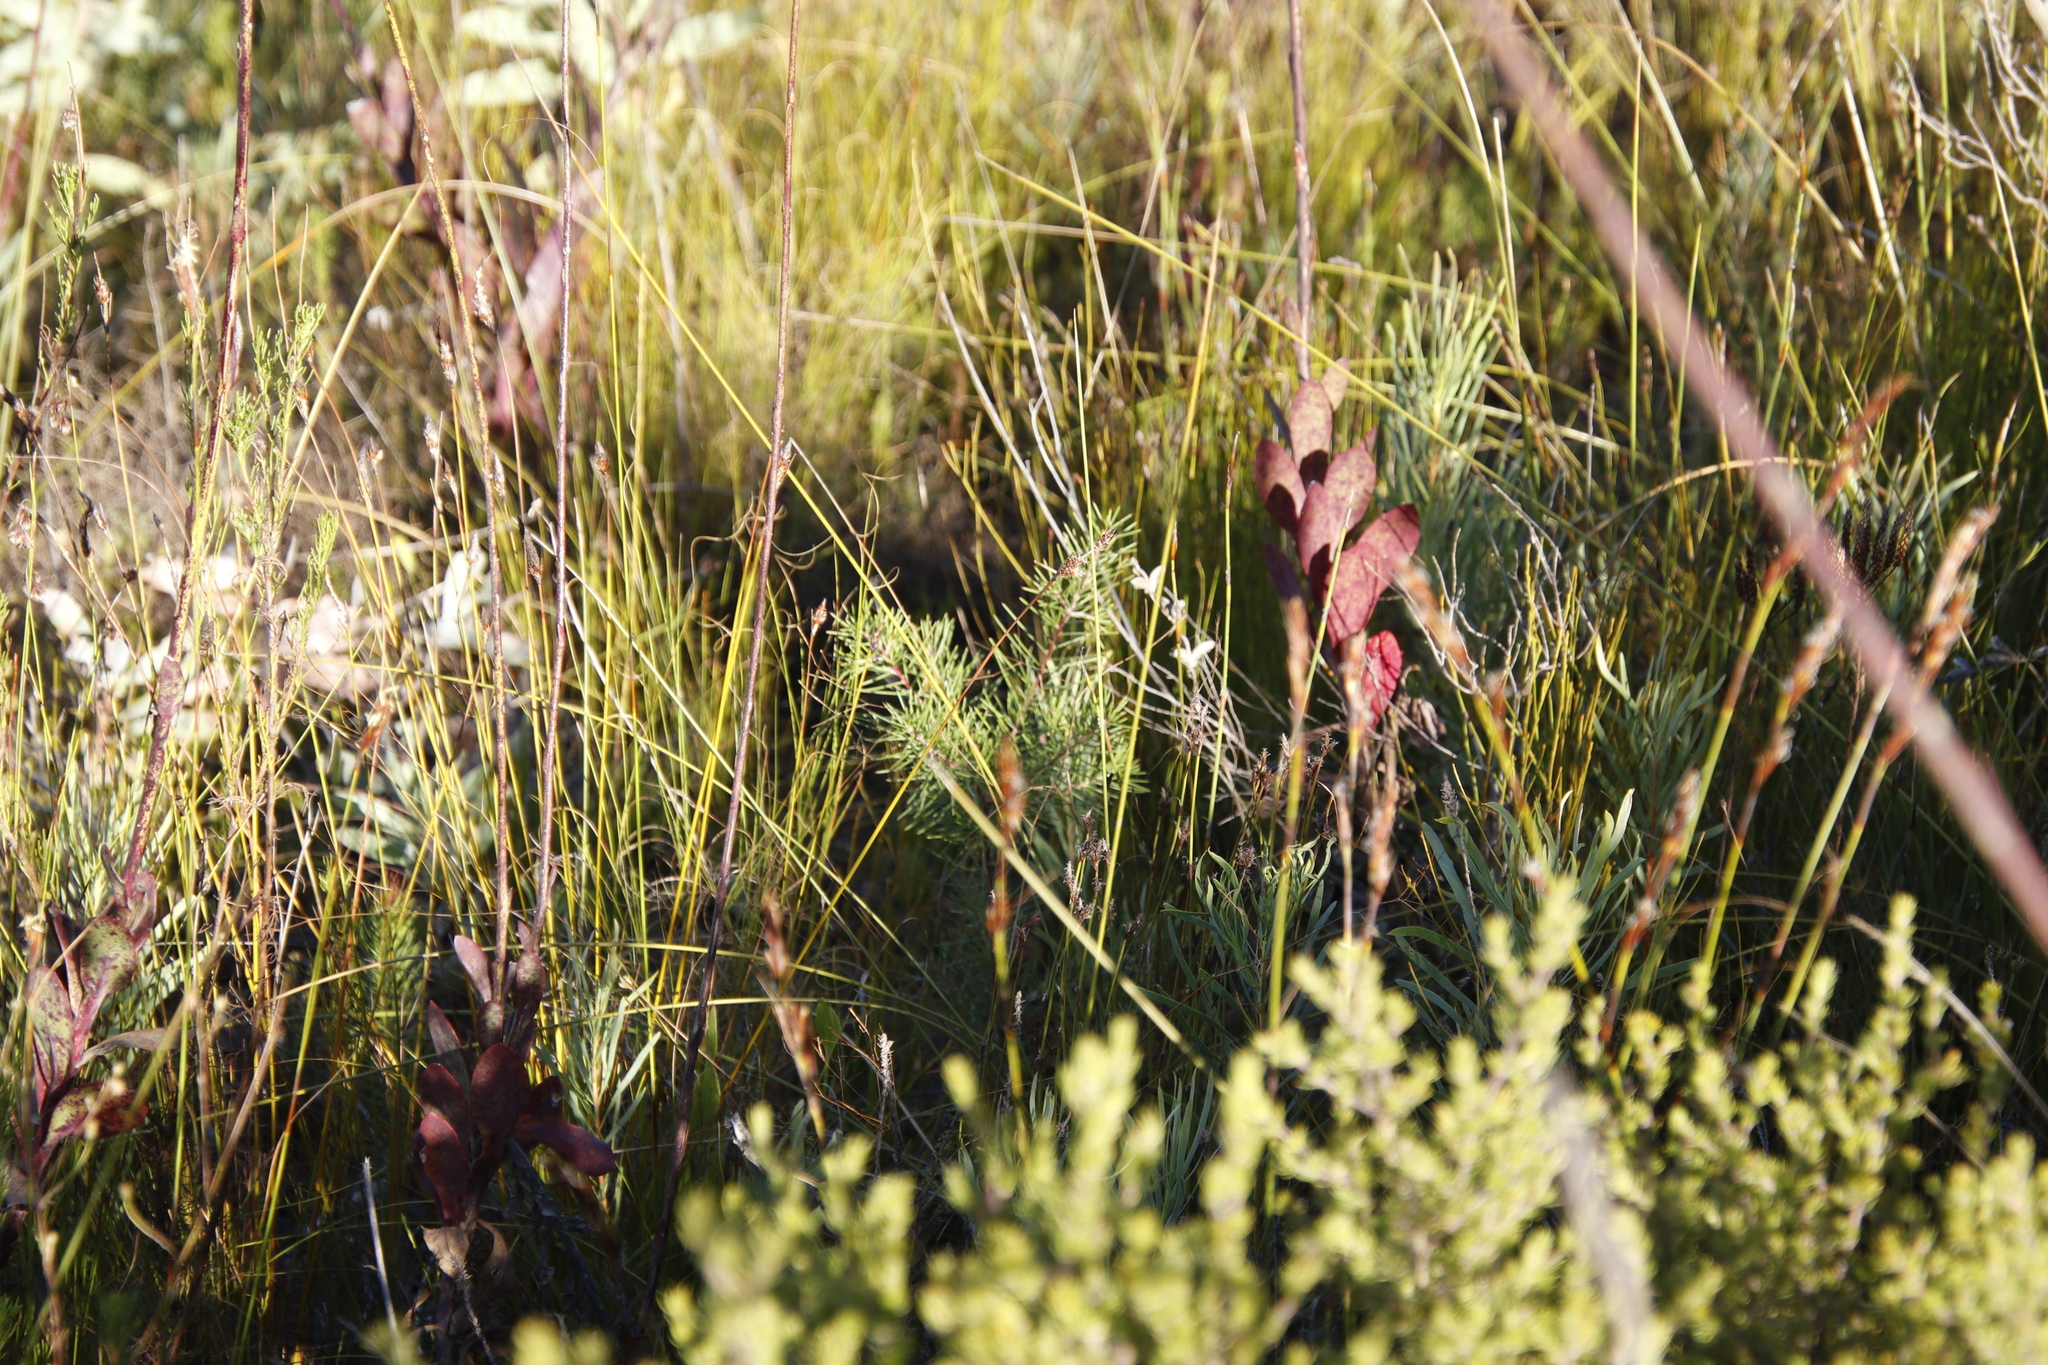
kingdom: Plantae
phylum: Tracheophyta
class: Magnoliopsida
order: Proteales
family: Proteaceae
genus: Hakea
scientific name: Hakea sericea
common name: Needle bush
